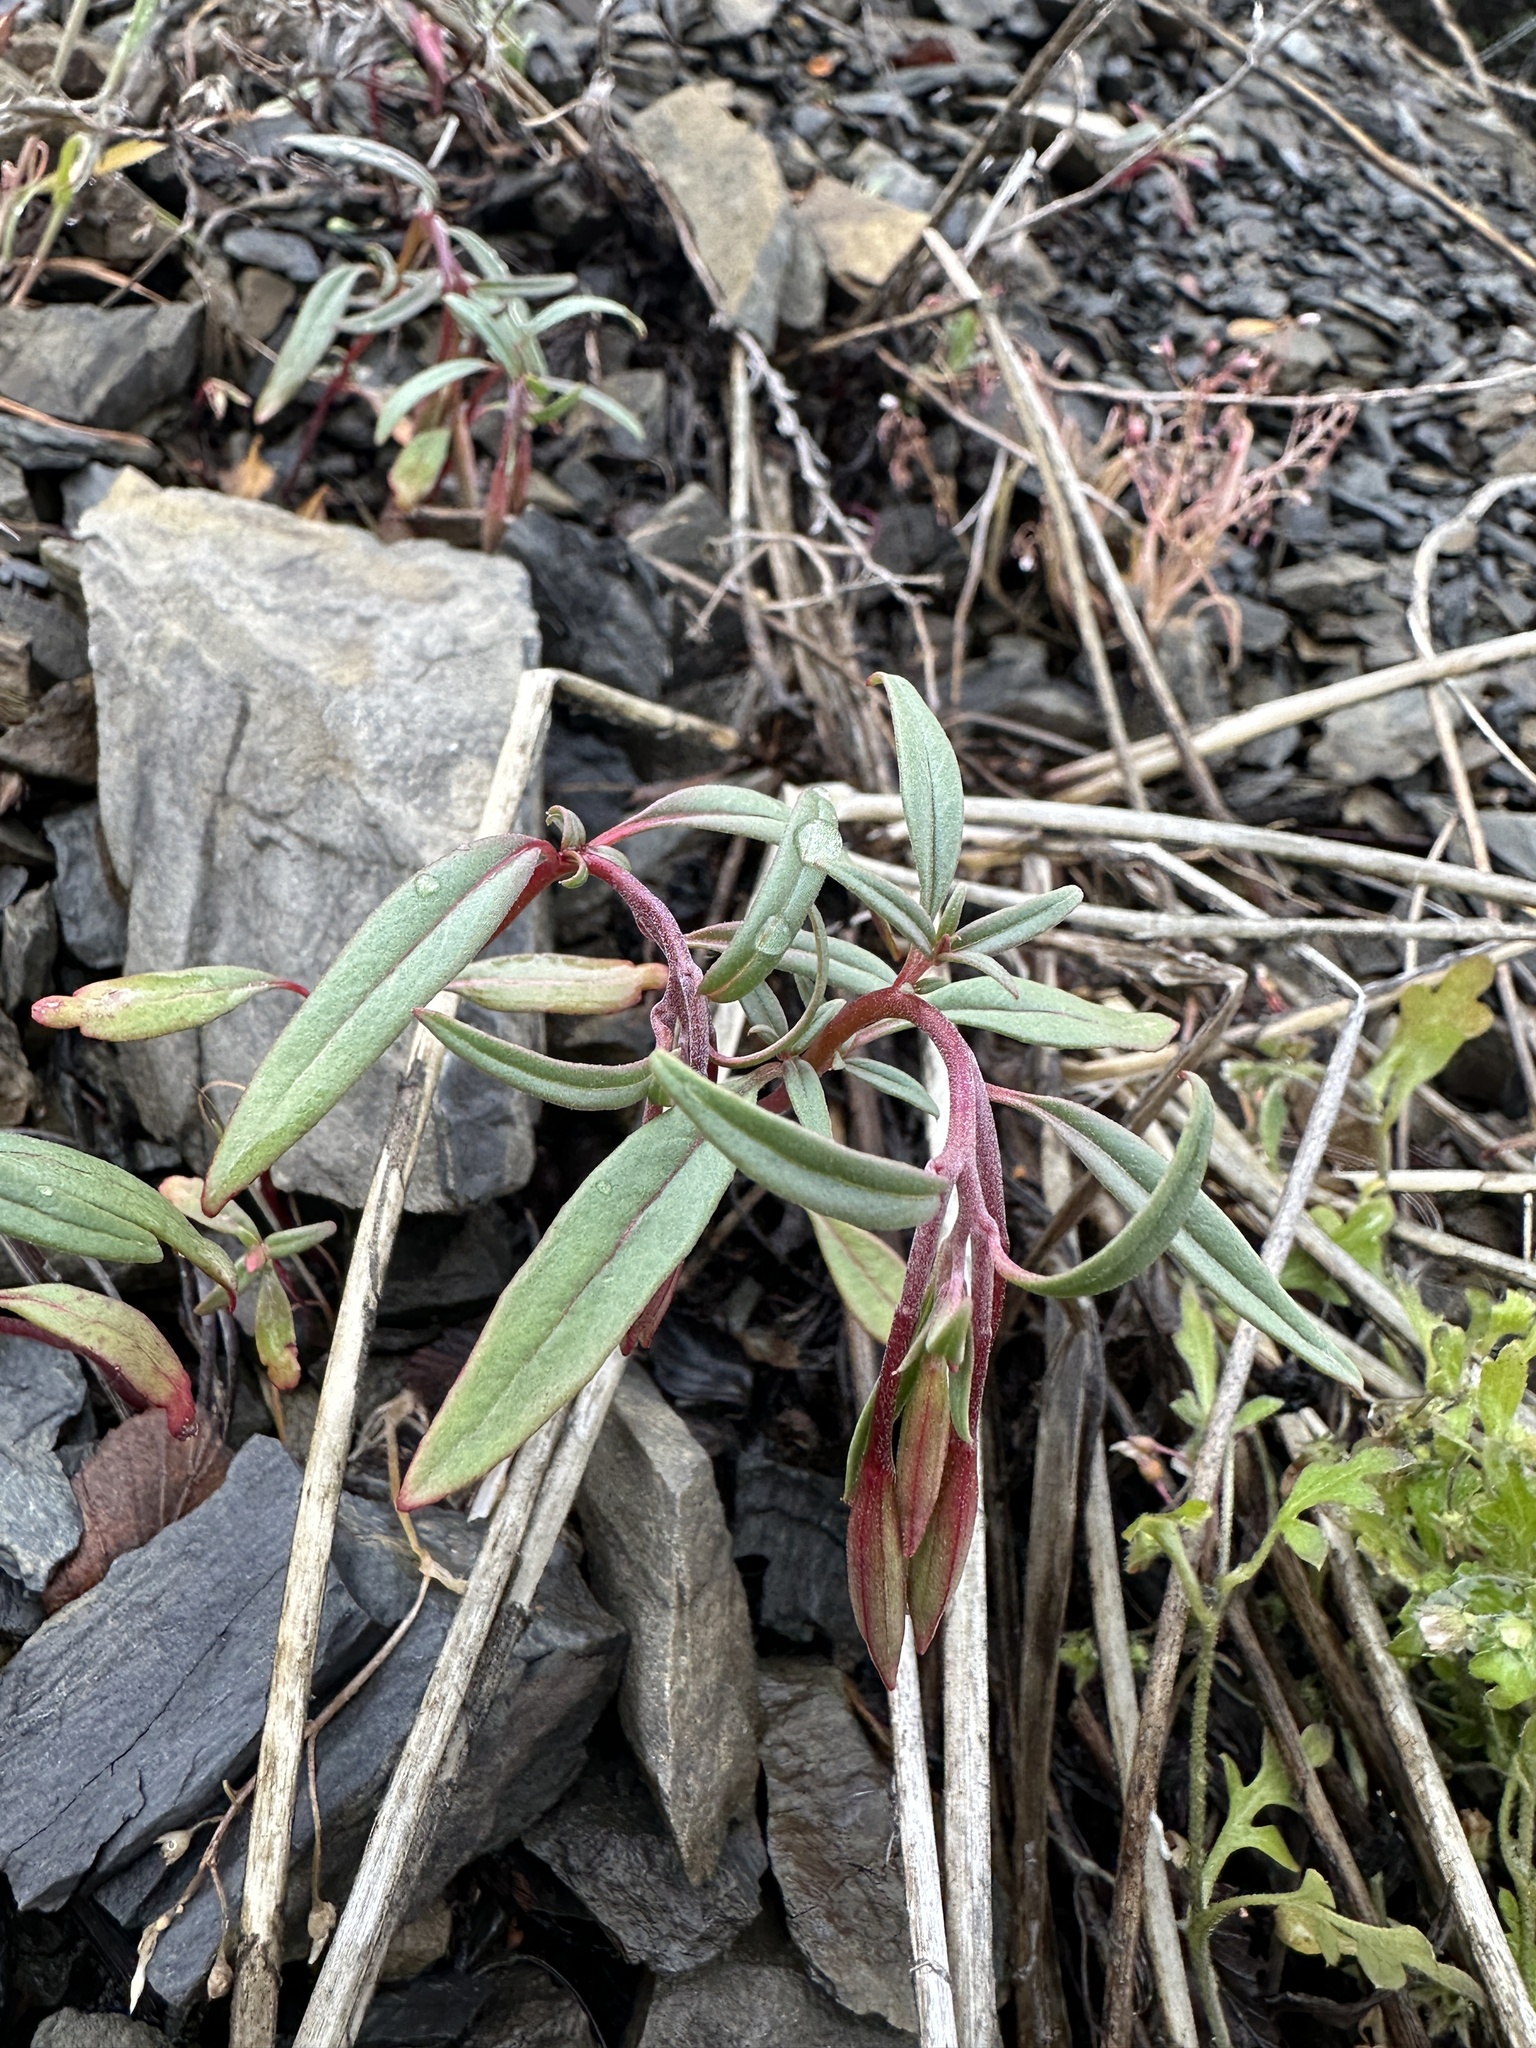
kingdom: Plantae
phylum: Tracheophyta
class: Magnoliopsida
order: Myrtales
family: Onagraceae
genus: Clarkia
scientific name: Clarkia breweri
